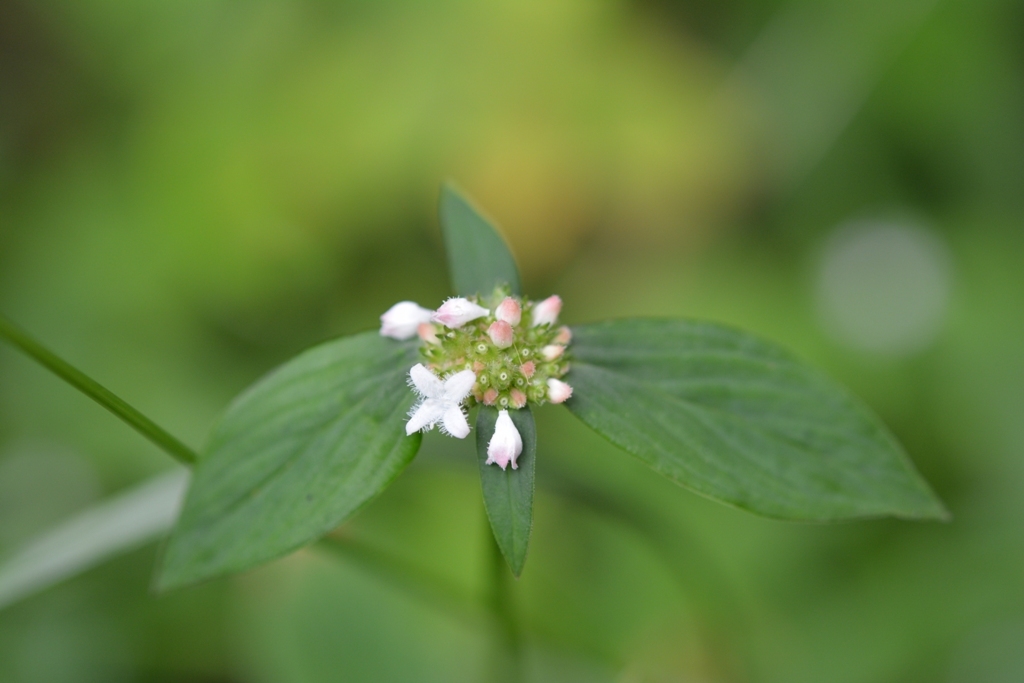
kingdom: Plantae
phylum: Tracheophyta
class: Magnoliopsida
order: Gentianales
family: Rubiaceae
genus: Spermacoce
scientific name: Spermacoce remota
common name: Woodland false buttonweed
